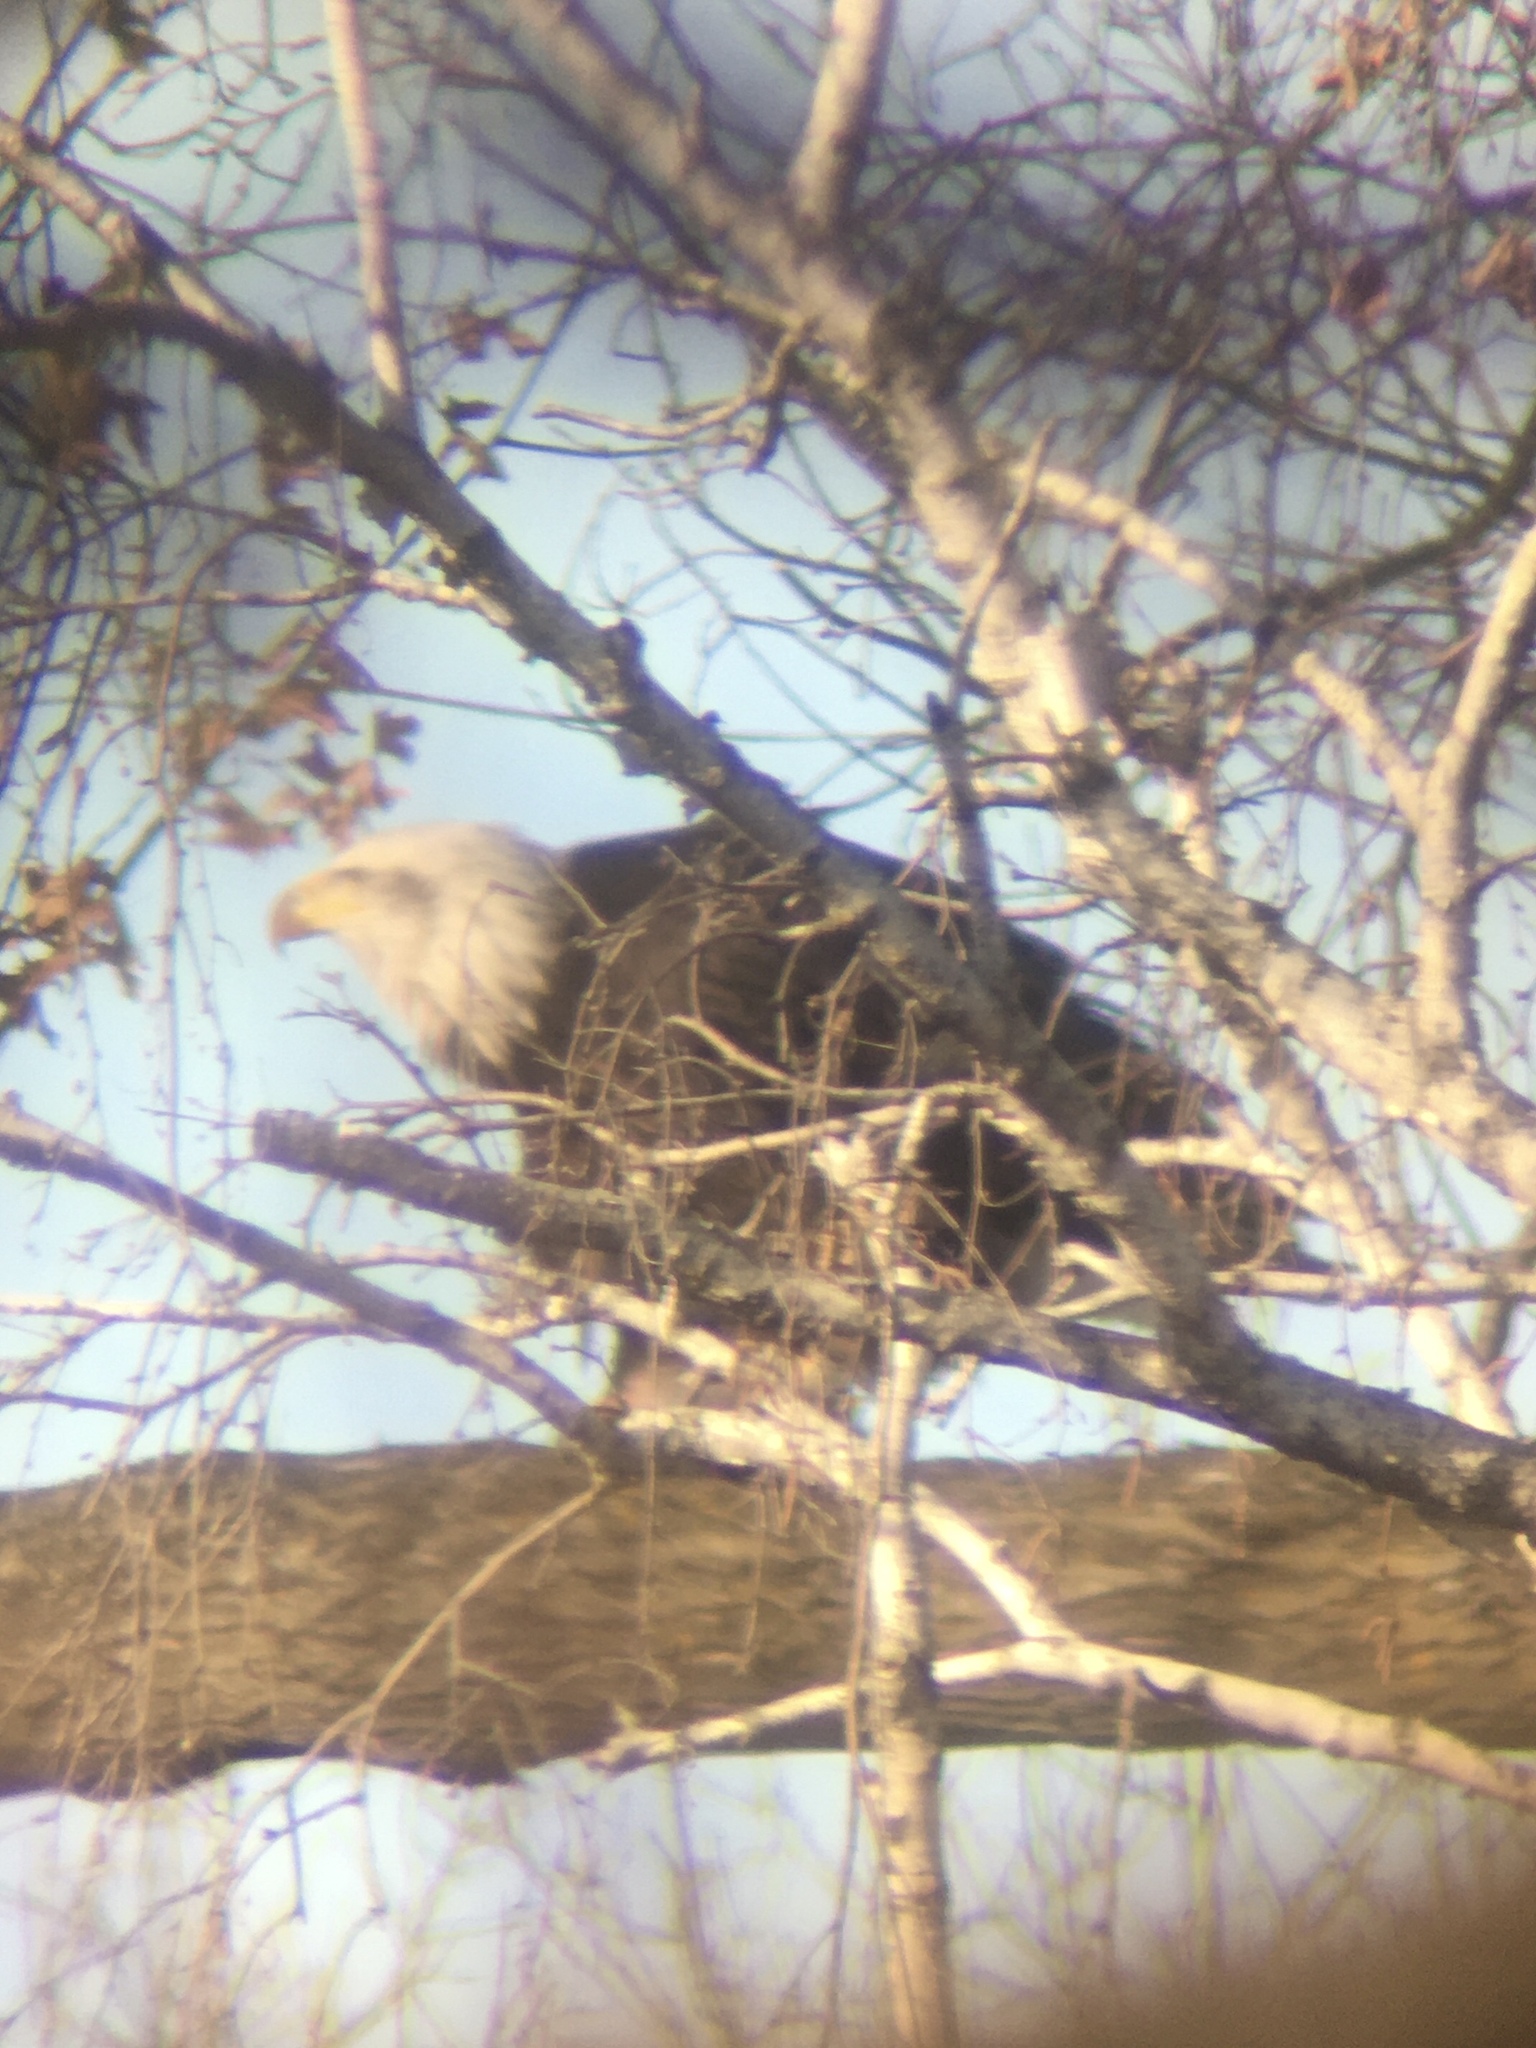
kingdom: Animalia
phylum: Chordata
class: Aves
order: Accipitriformes
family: Accipitridae
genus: Haliaeetus
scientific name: Haliaeetus leucocephalus
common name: Bald eagle
